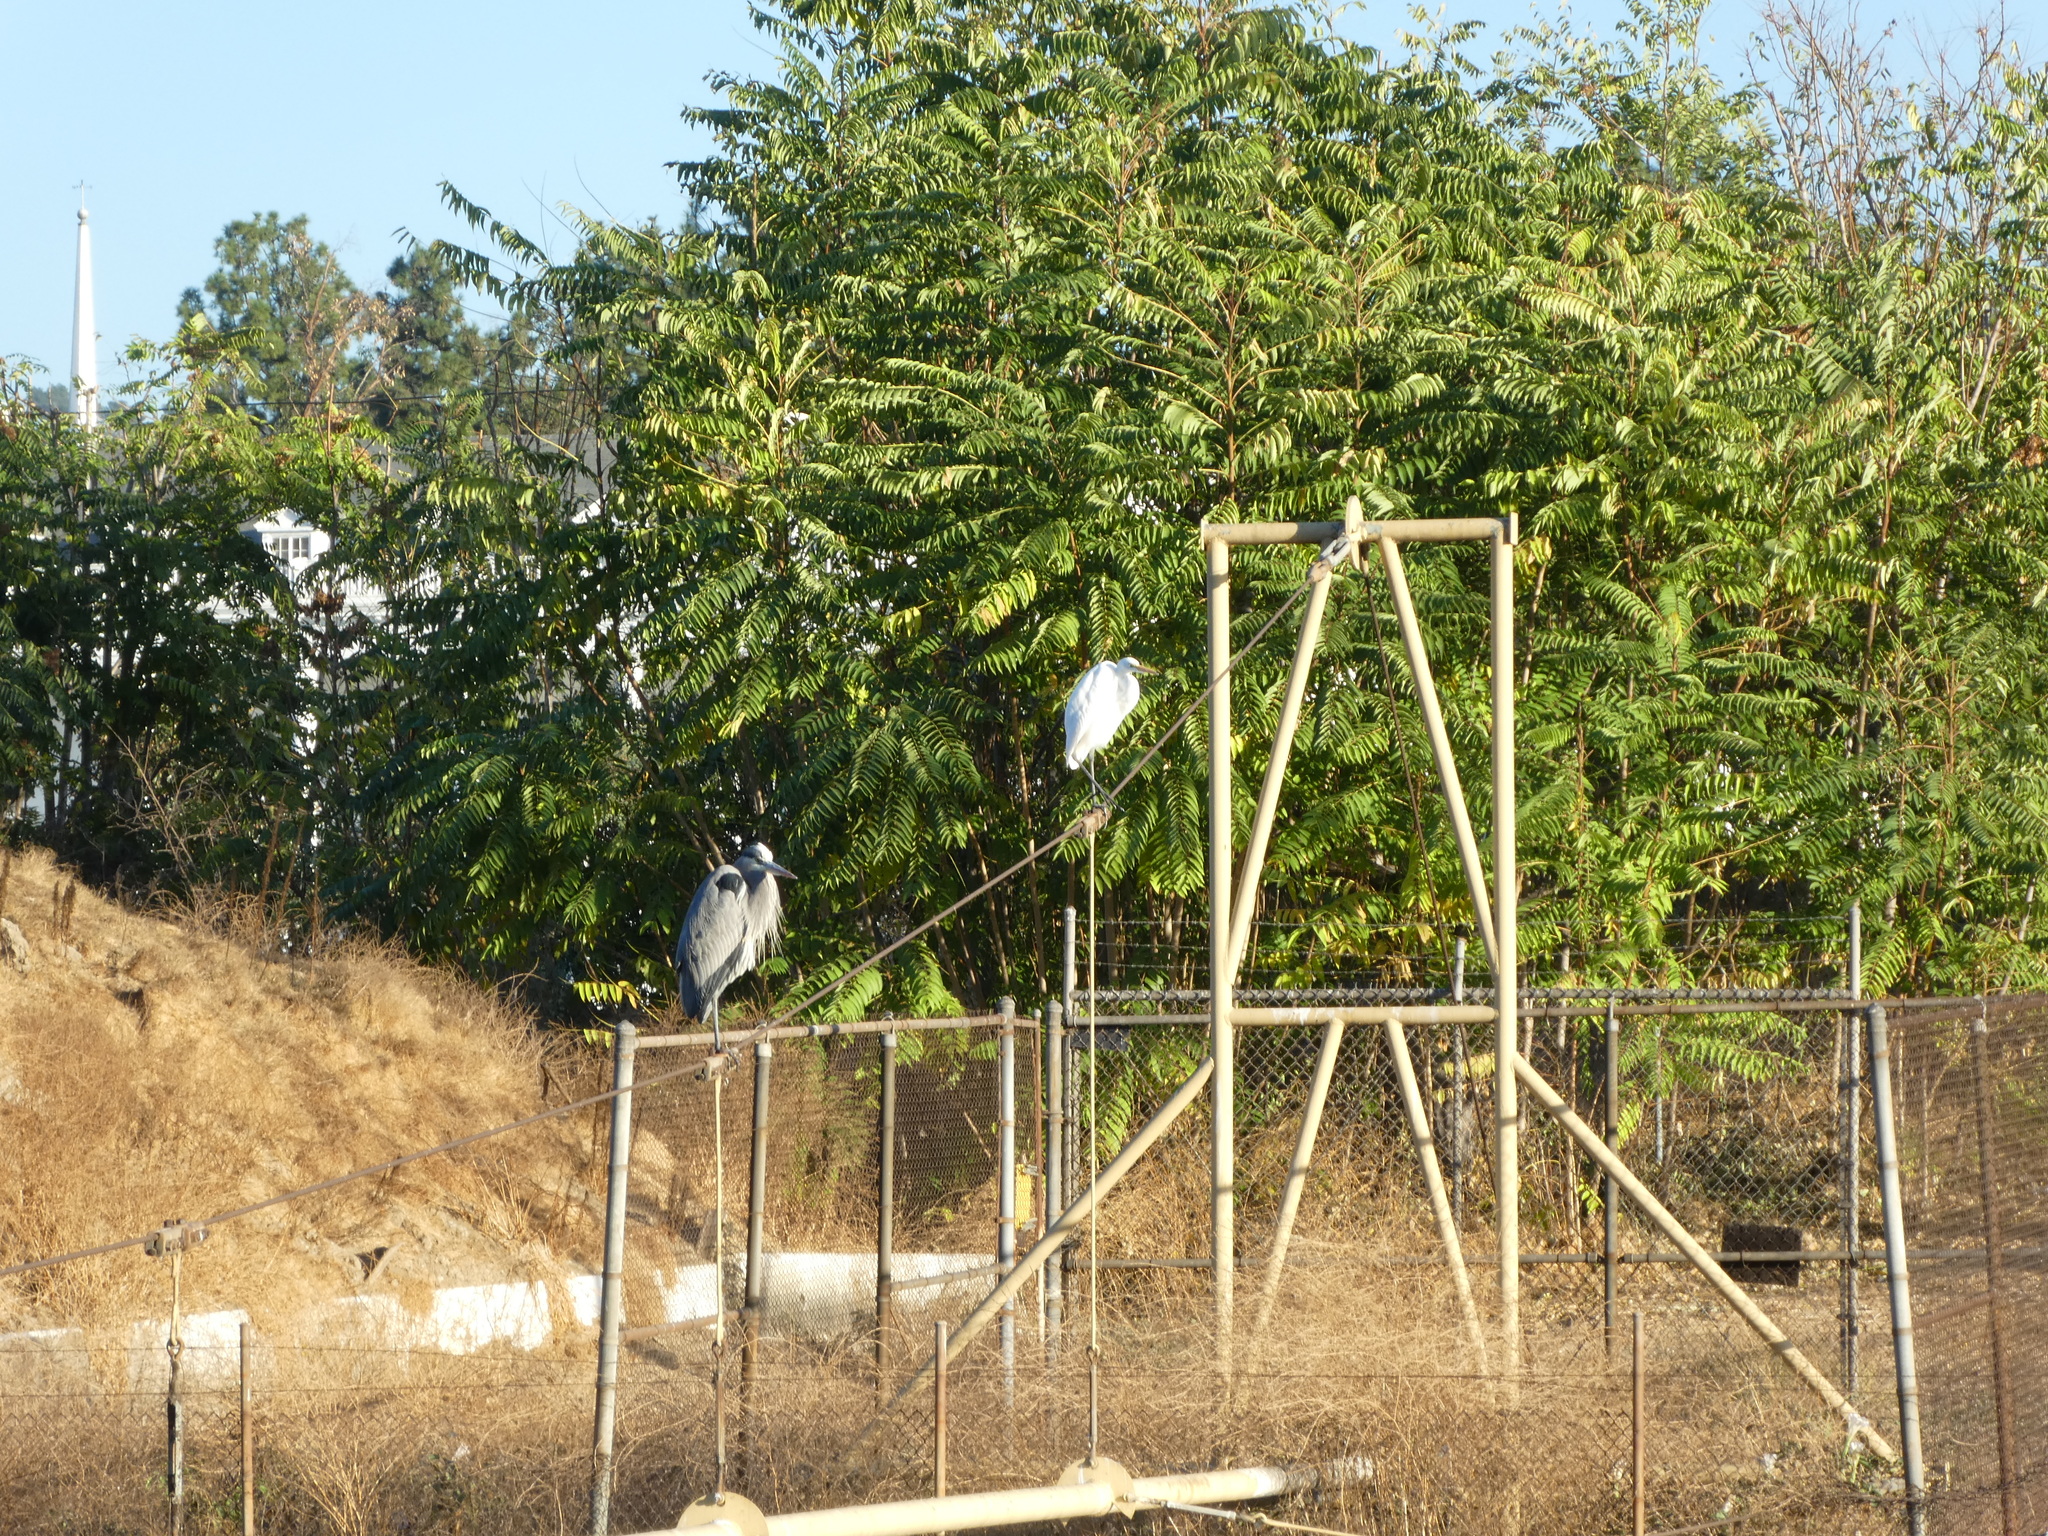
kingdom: Animalia
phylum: Chordata
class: Aves
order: Pelecaniformes
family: Ardeidae
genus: Ardea
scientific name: Ardea herodias
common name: Great blue heron
